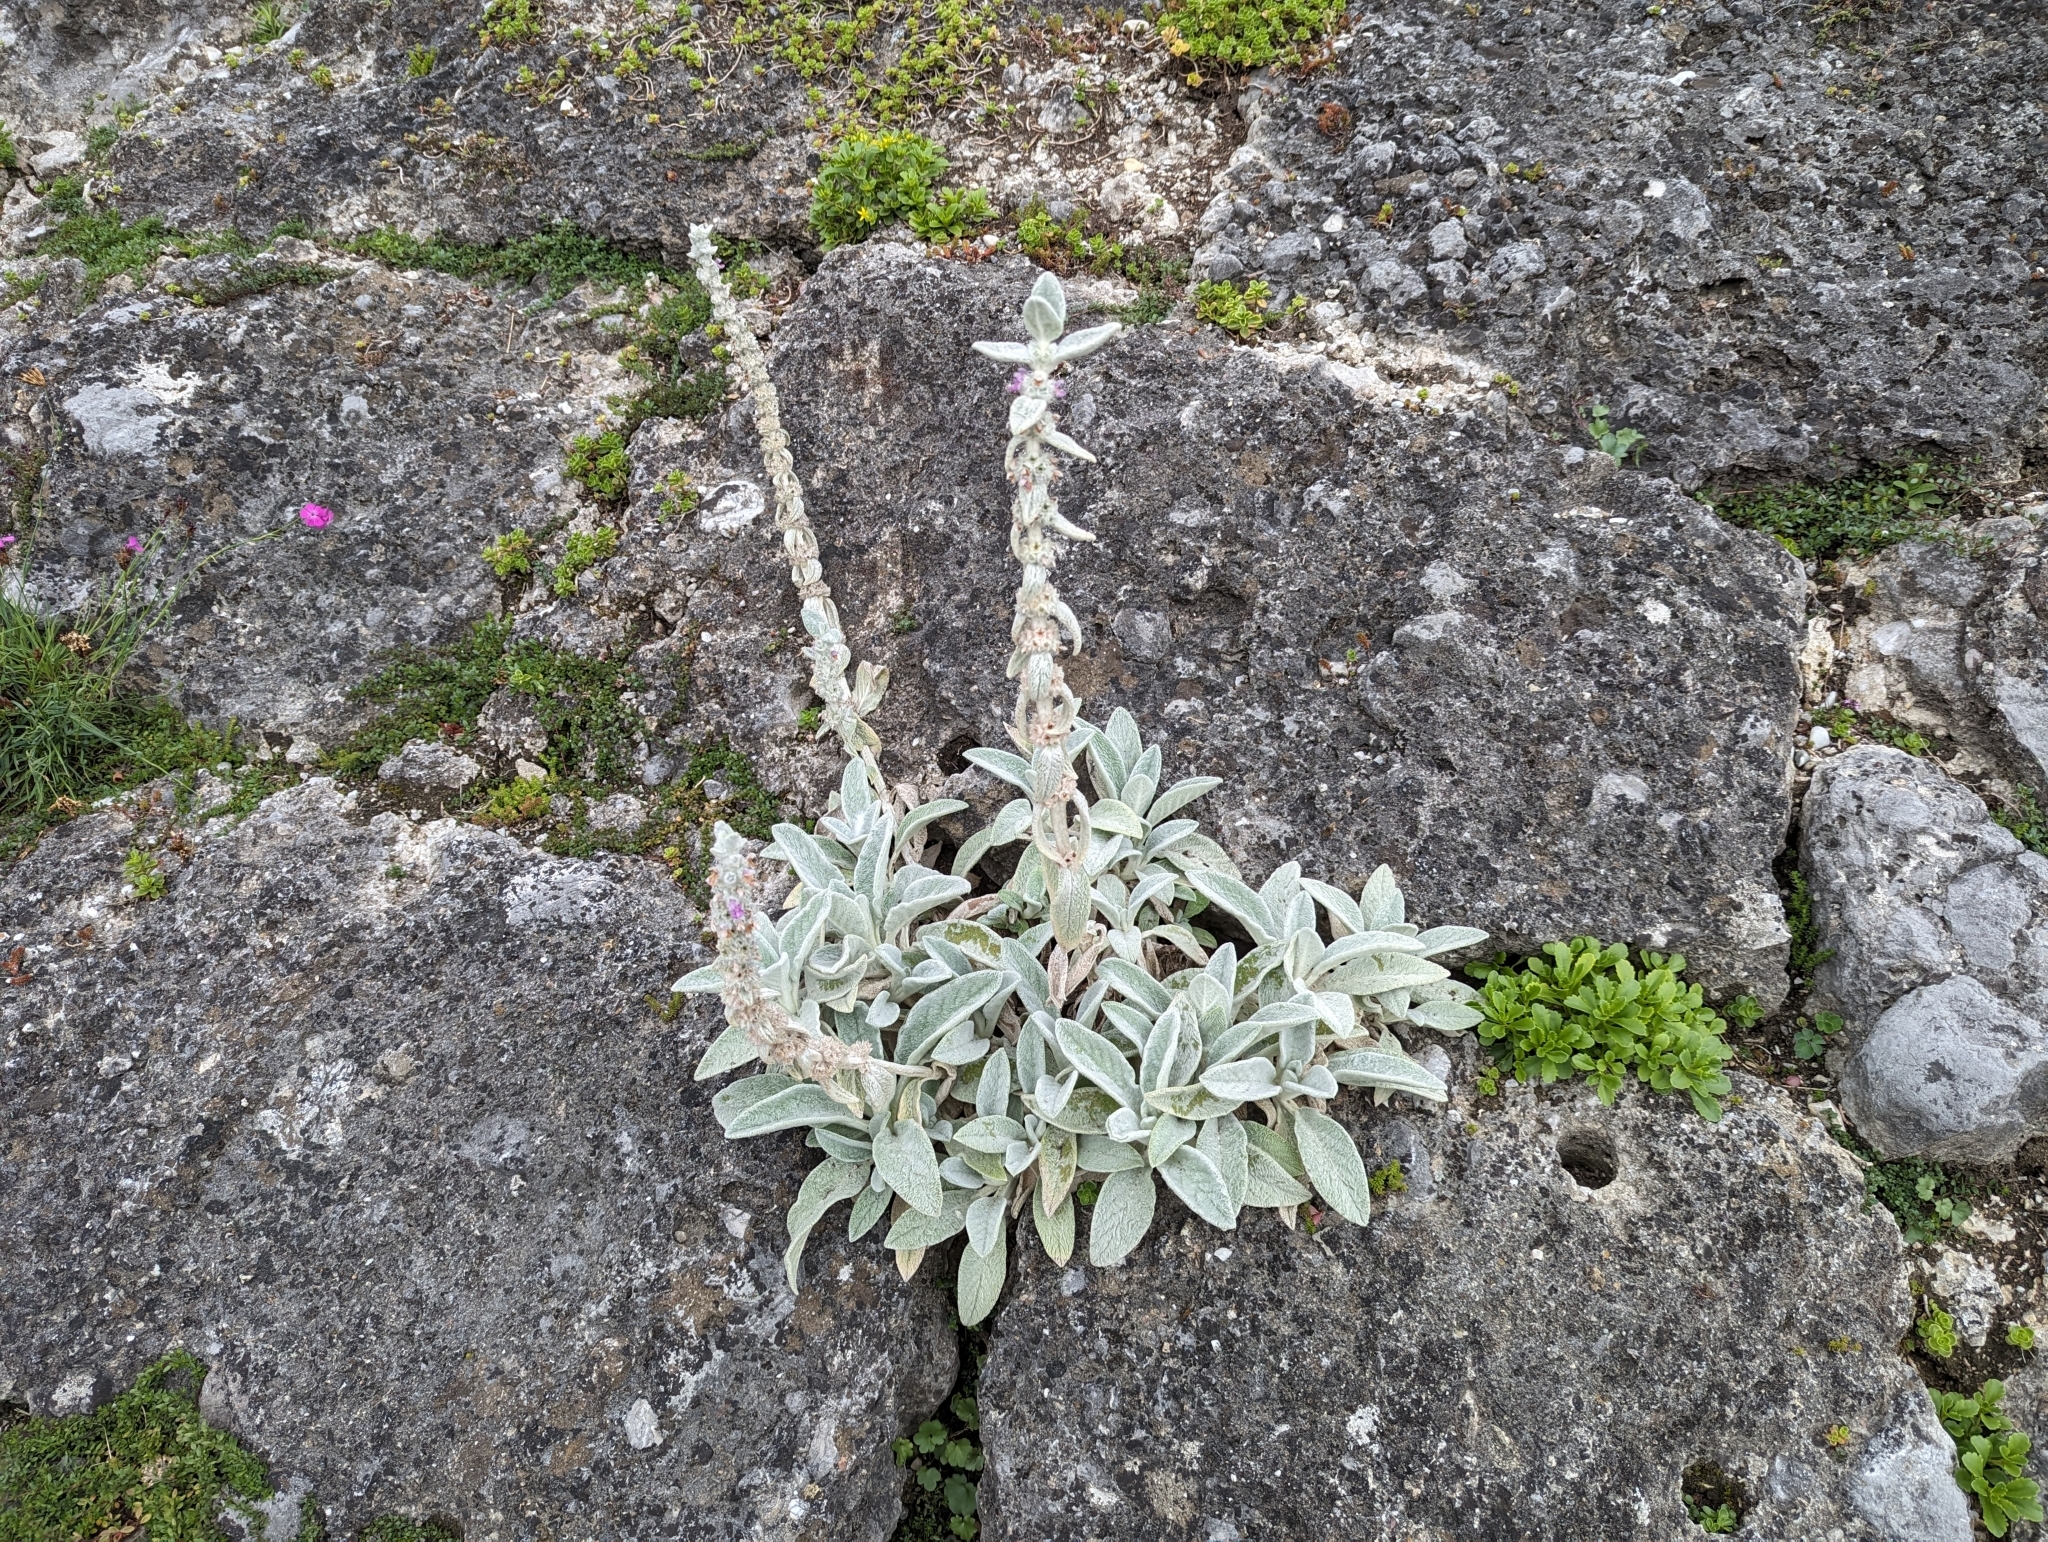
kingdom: Plantae
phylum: Tracheophyta
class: Magnoliopsida
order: Lamiales
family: Lamiaceae
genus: Stachys
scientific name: Stachys byzantina
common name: Lamb's-ear
